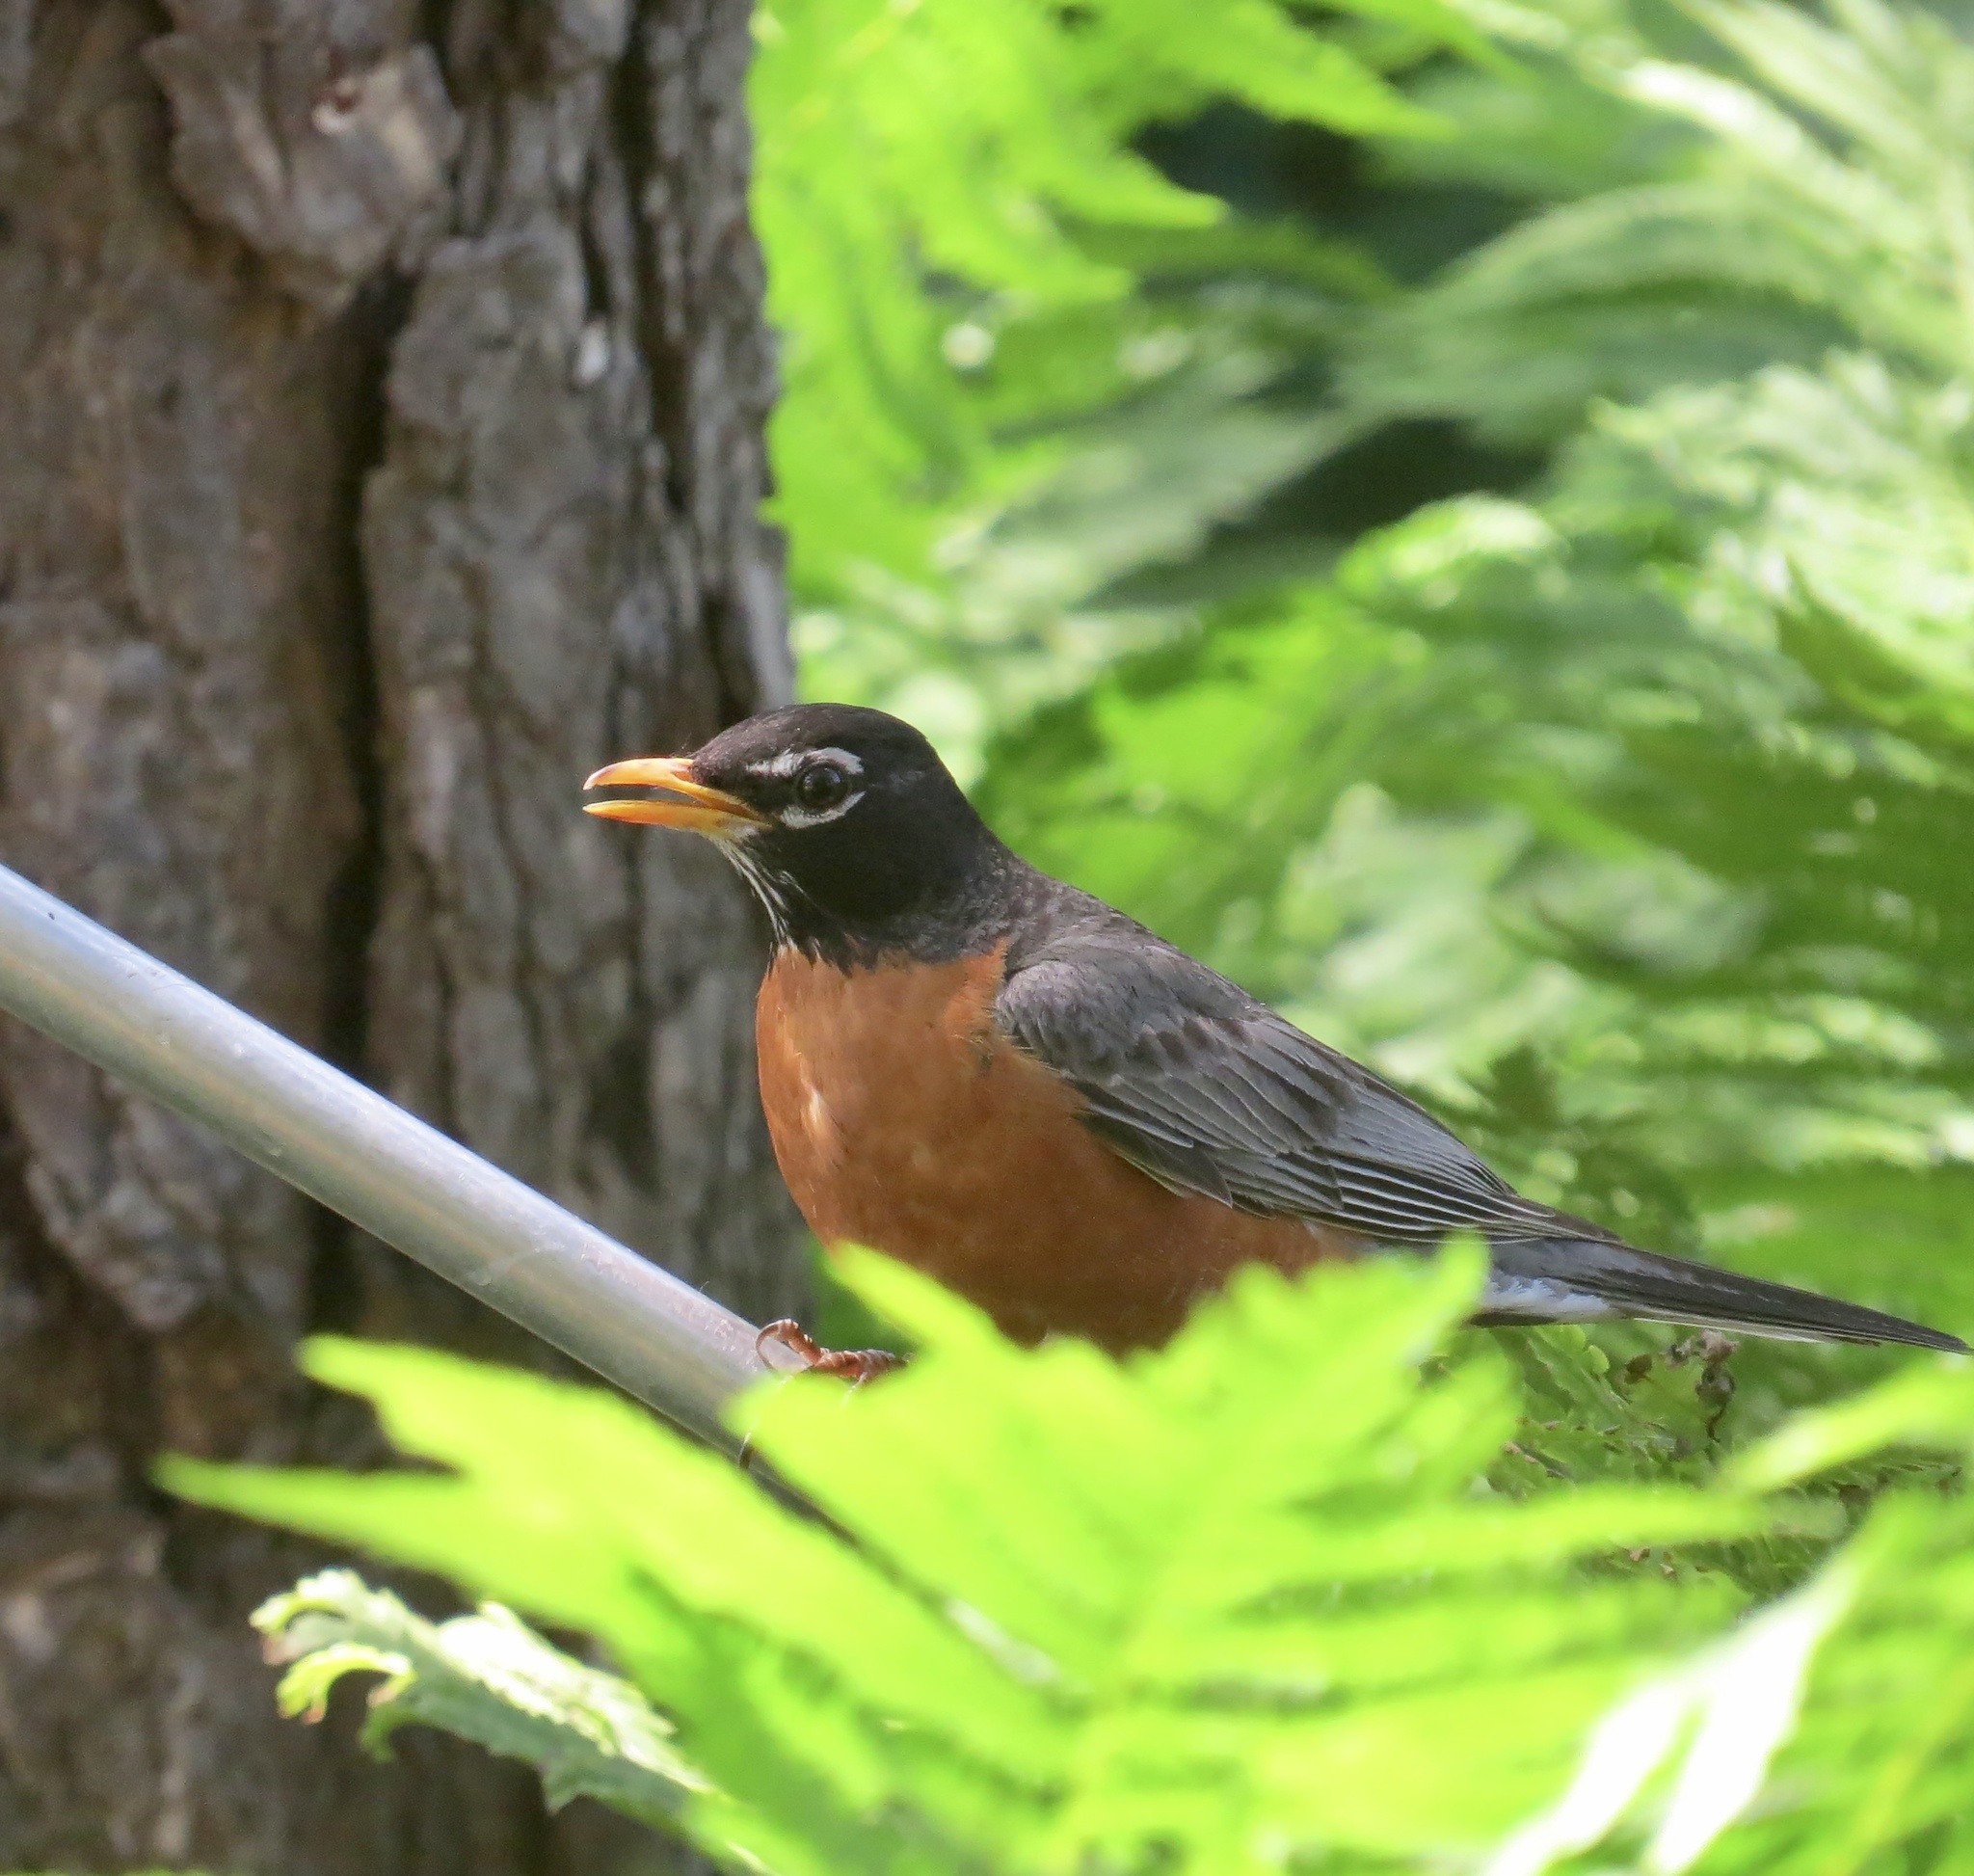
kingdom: Animalia
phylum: Chordata
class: Aves
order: Passeriformes
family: Turdidae
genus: Turdus
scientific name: Turdus migratorius
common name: American robin
